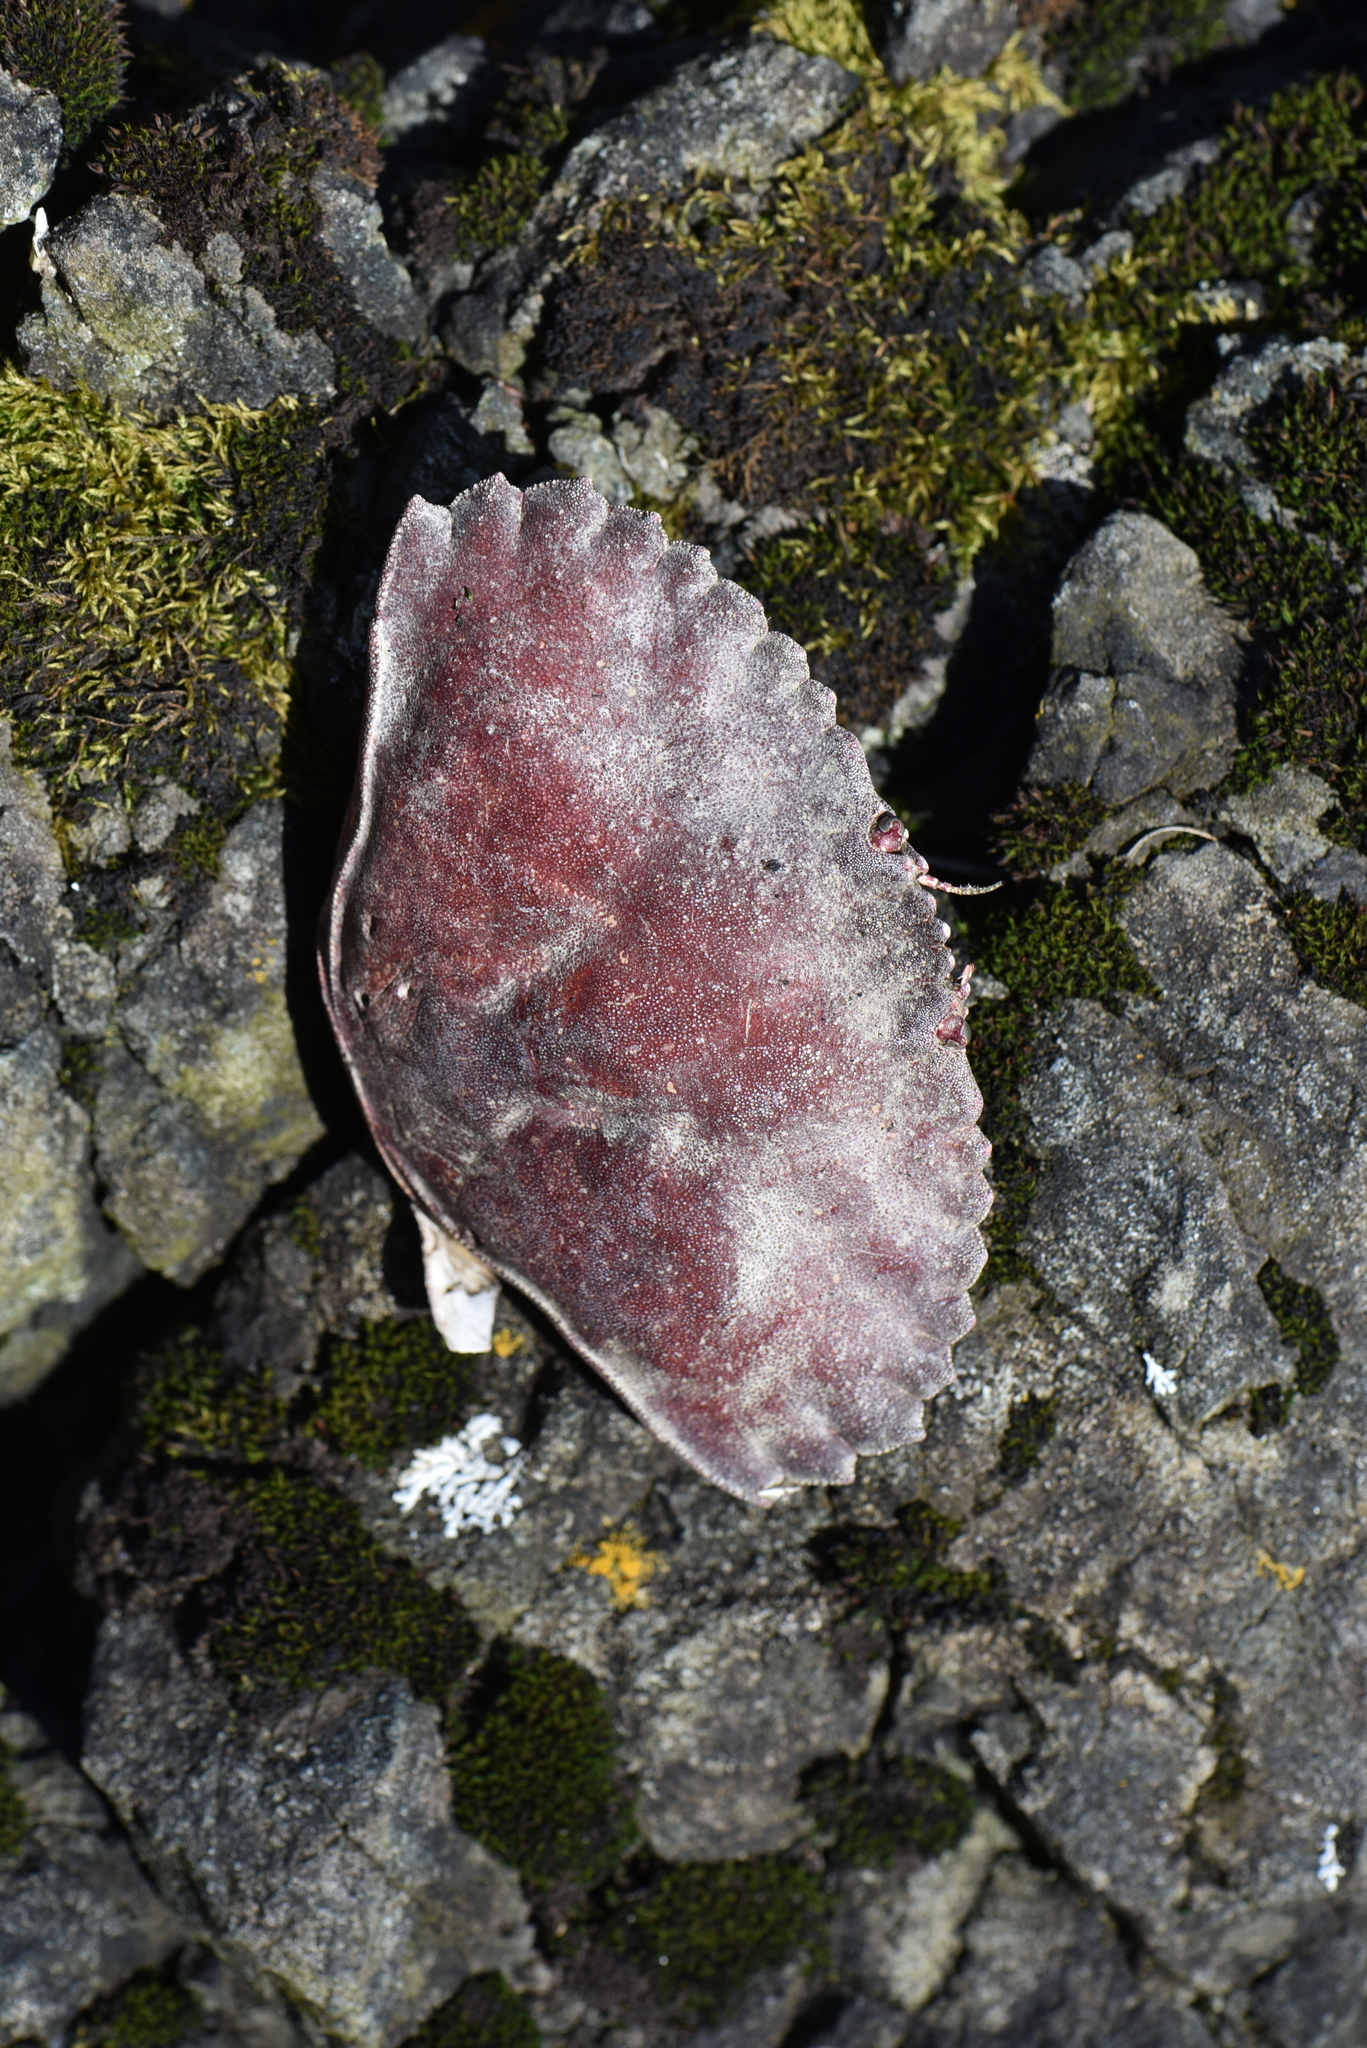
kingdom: Animalia
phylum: Arthropoda
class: Malacostraca
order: Decapoda
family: Cancridae
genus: Cancer
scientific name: Cancer productus
